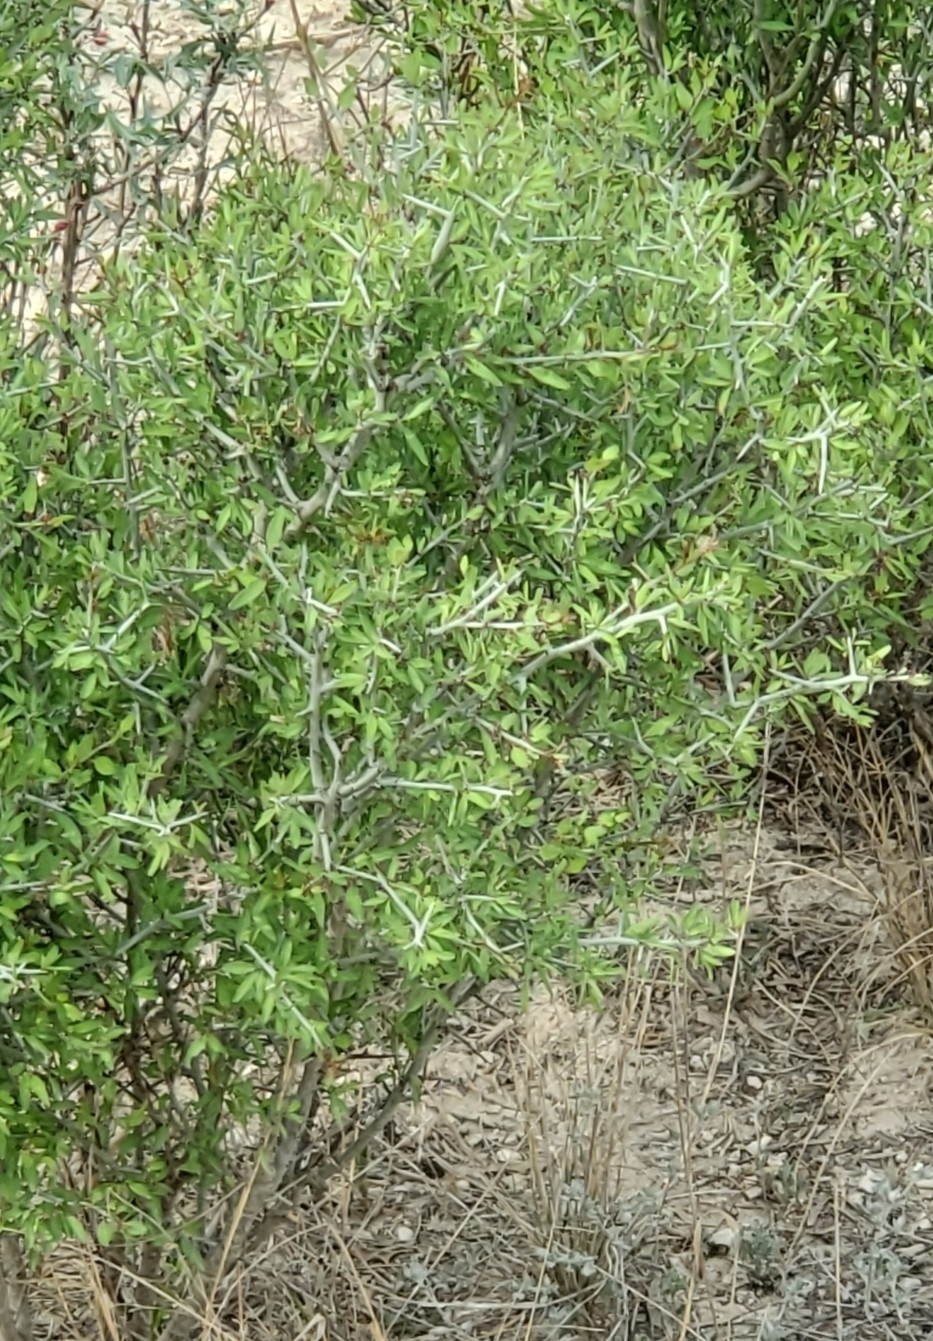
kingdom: Plantae
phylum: Tracheophyta
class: Magnoliopsida
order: Rosales
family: Rhamnaceae
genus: Sarcomphalus
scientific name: Sarcomphalus obtusifolius
